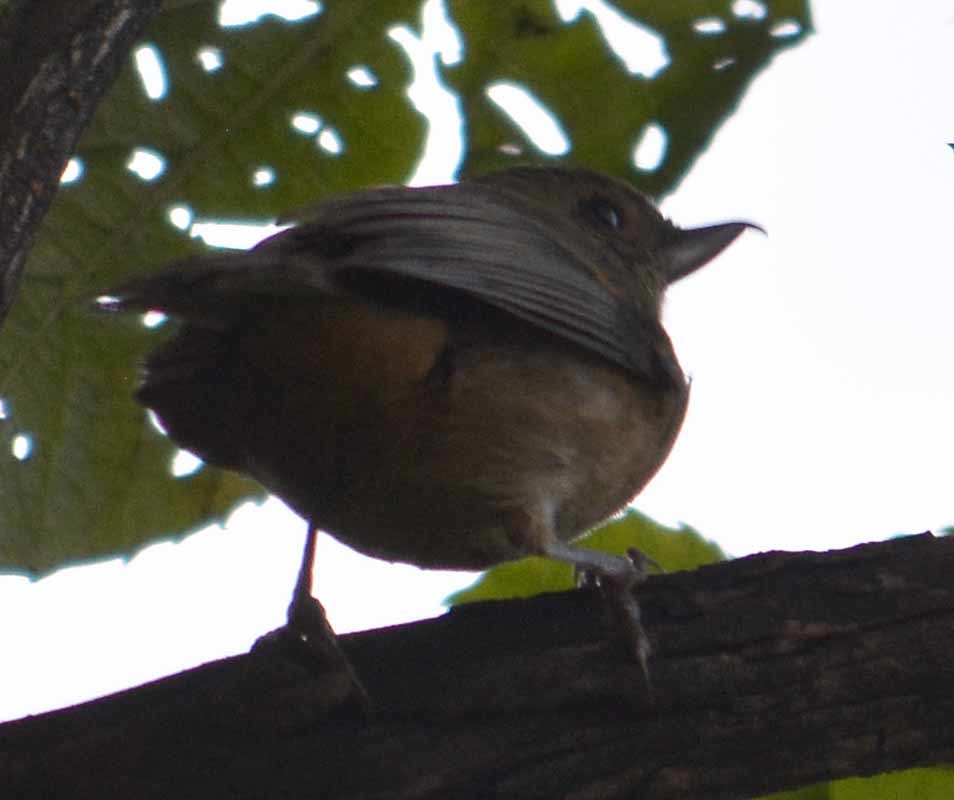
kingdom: Animalia
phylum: Chordata
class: Aves
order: Passeriformes
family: Thraupidae
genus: Diglossa
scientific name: Diglossa baritula
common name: Cinnamon-bellied flowerpiercer
